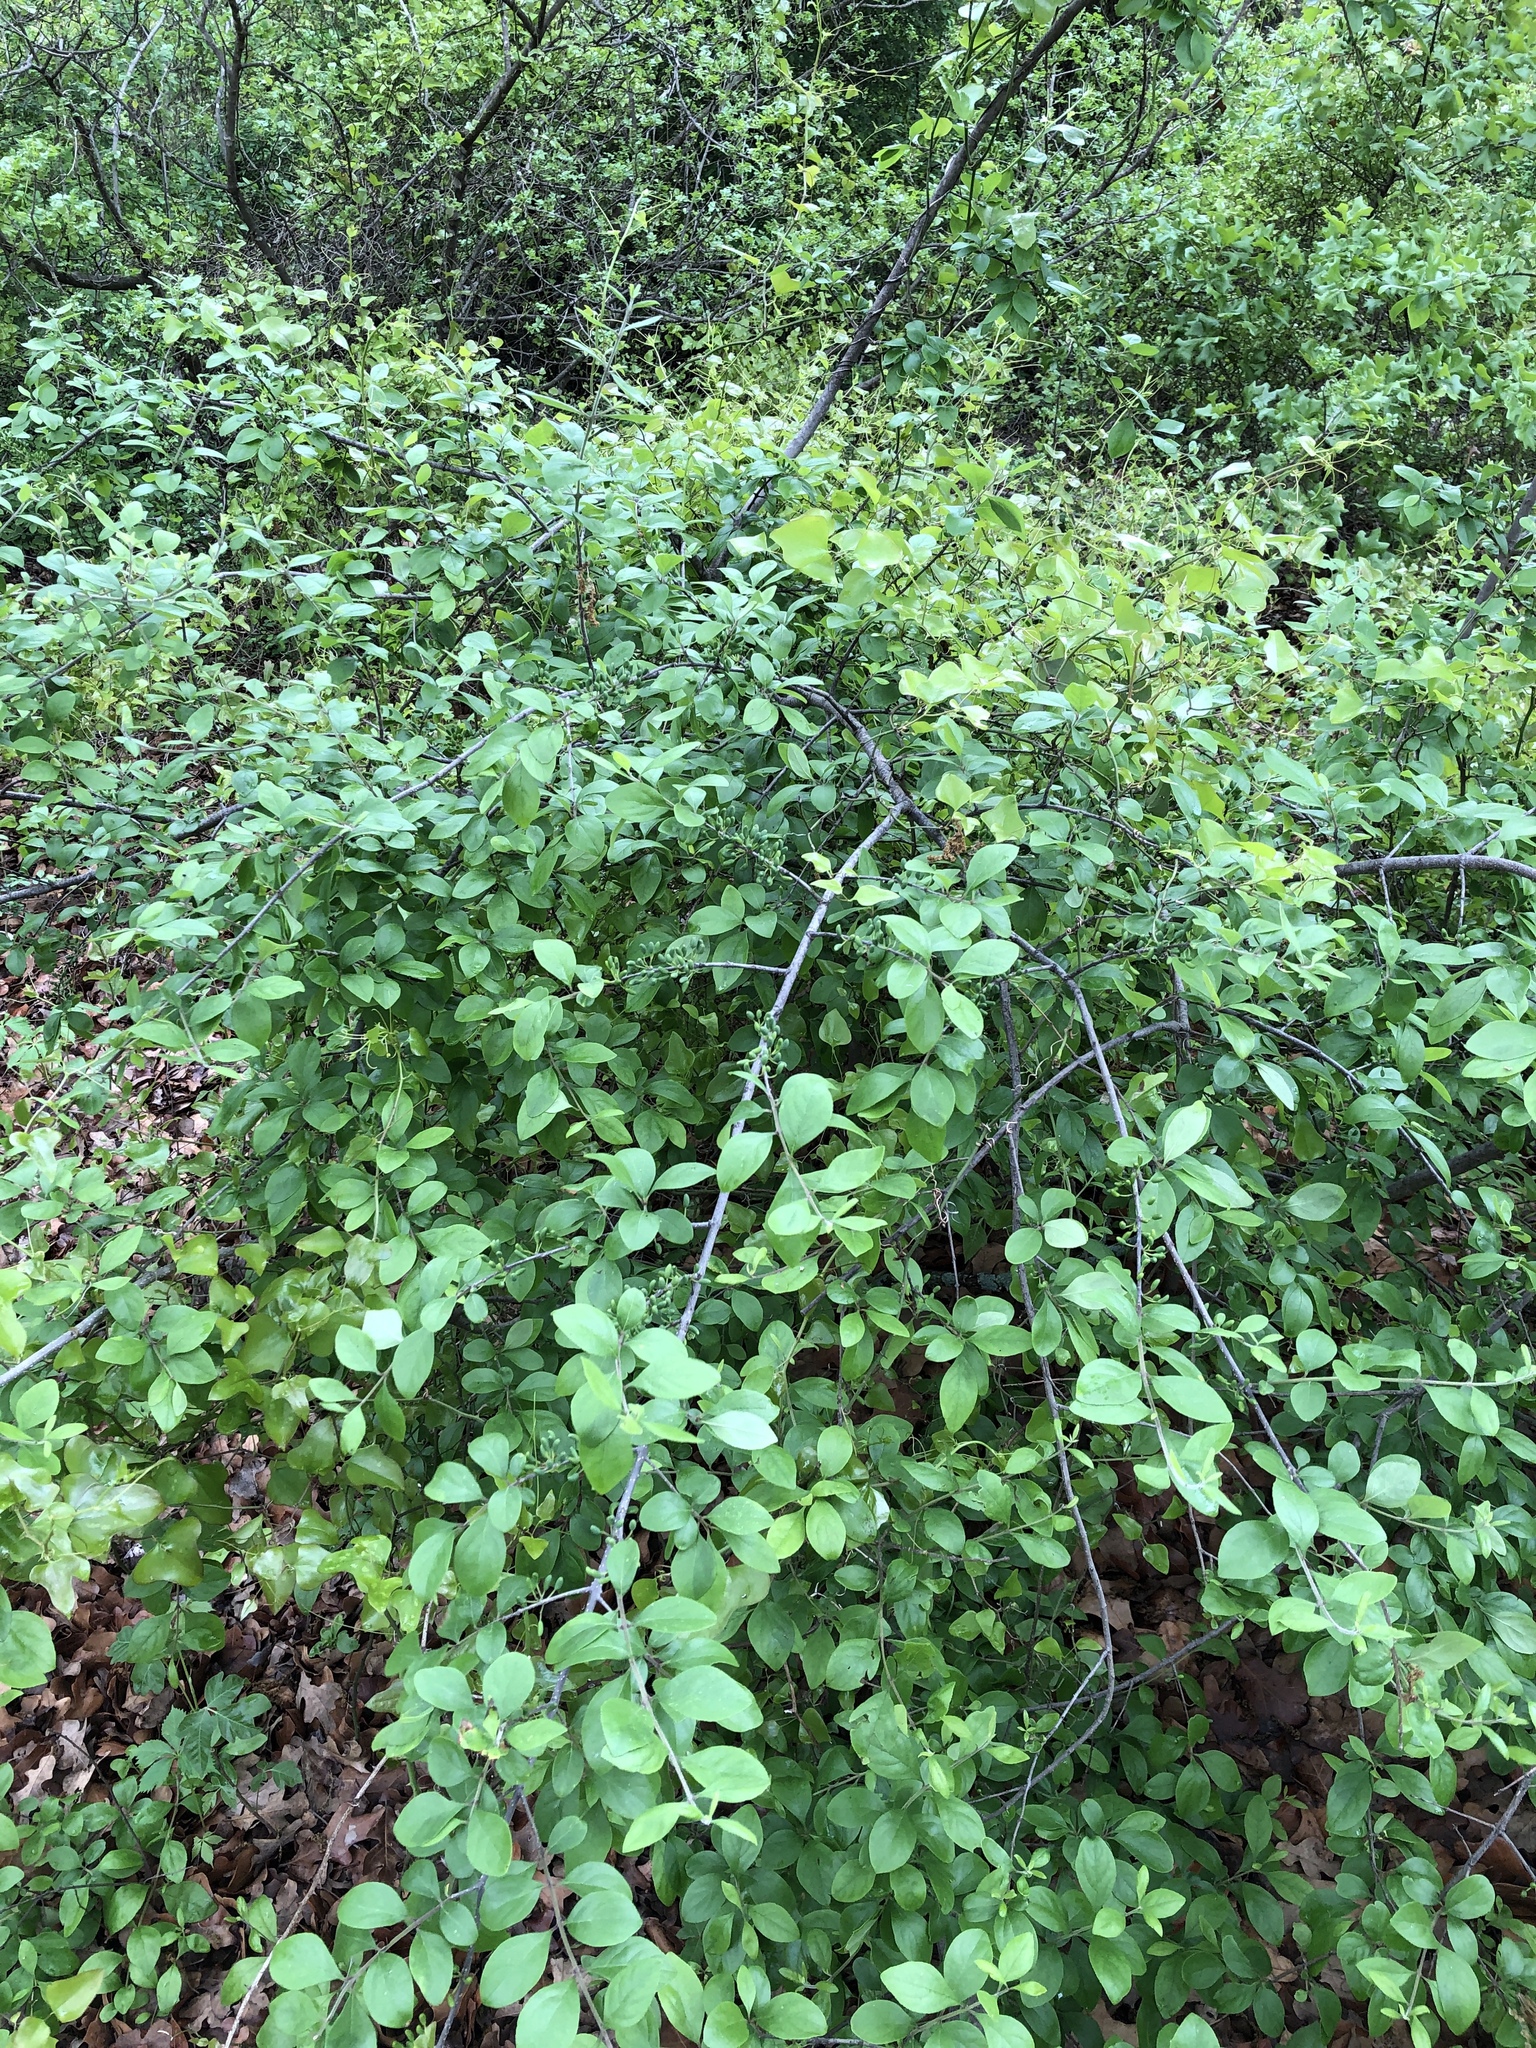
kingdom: Plantae
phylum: Tracheophyta
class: Magnoliopsida
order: Lamiales
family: Oleaceae
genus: Forestiera
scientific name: Forestiera pubescens
